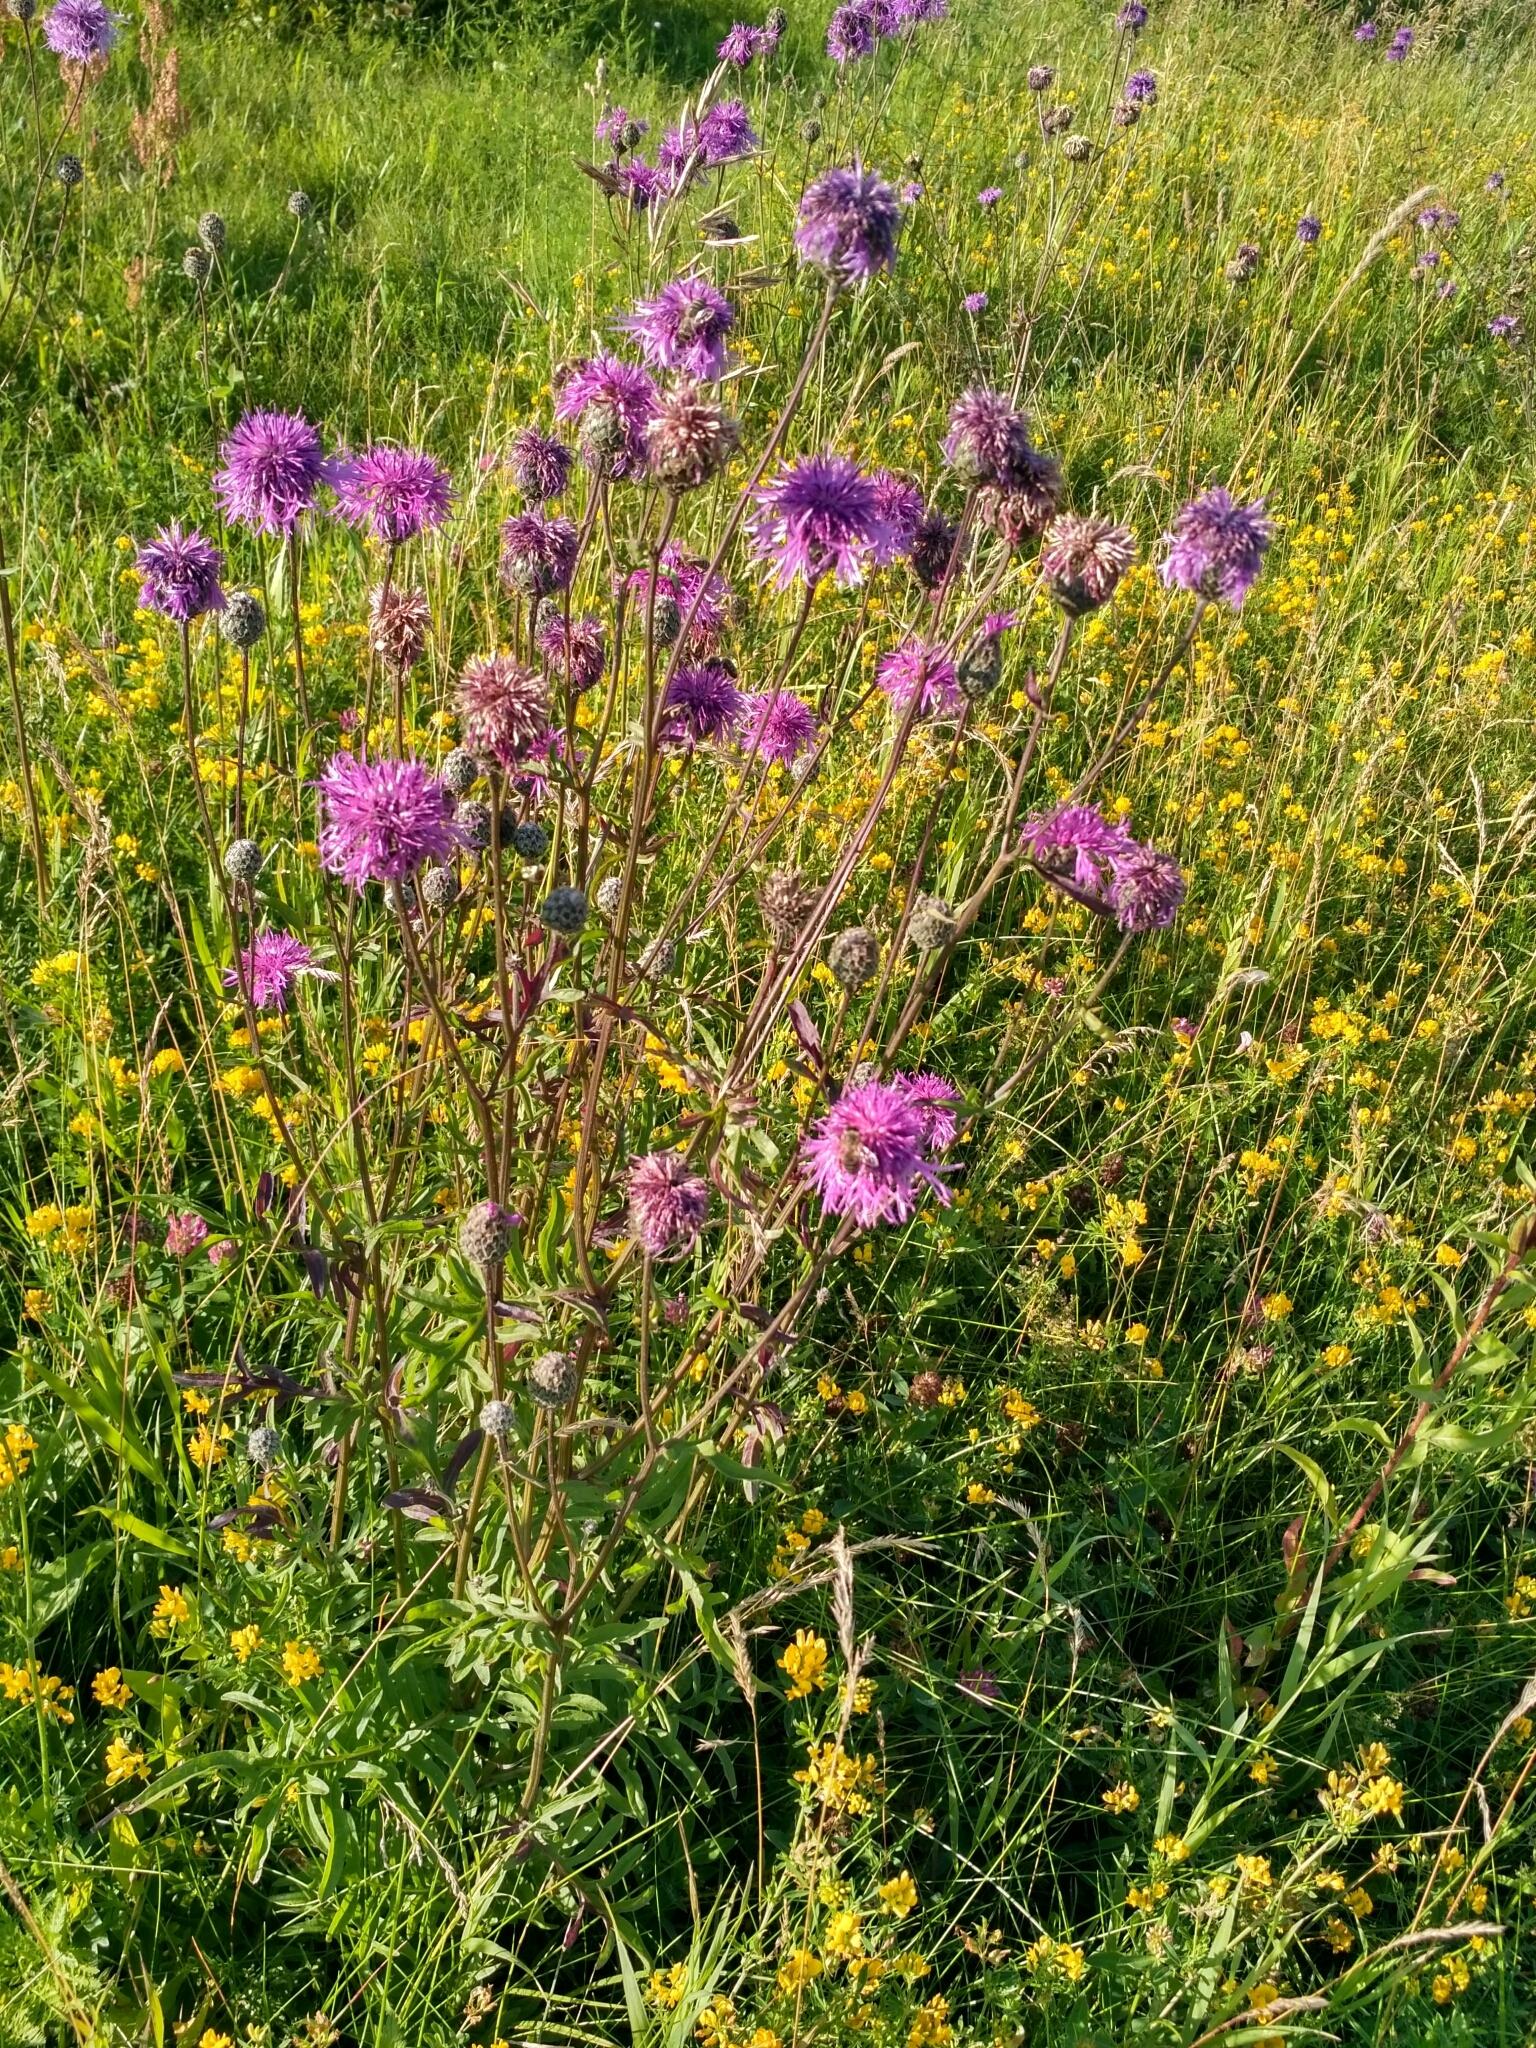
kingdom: Plantae
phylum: Tracheophyta
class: Magnoliopsida
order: Asterales
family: Asteraceae
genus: Centaurea
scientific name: Centaurea scabiosa
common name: Greater knapweed
